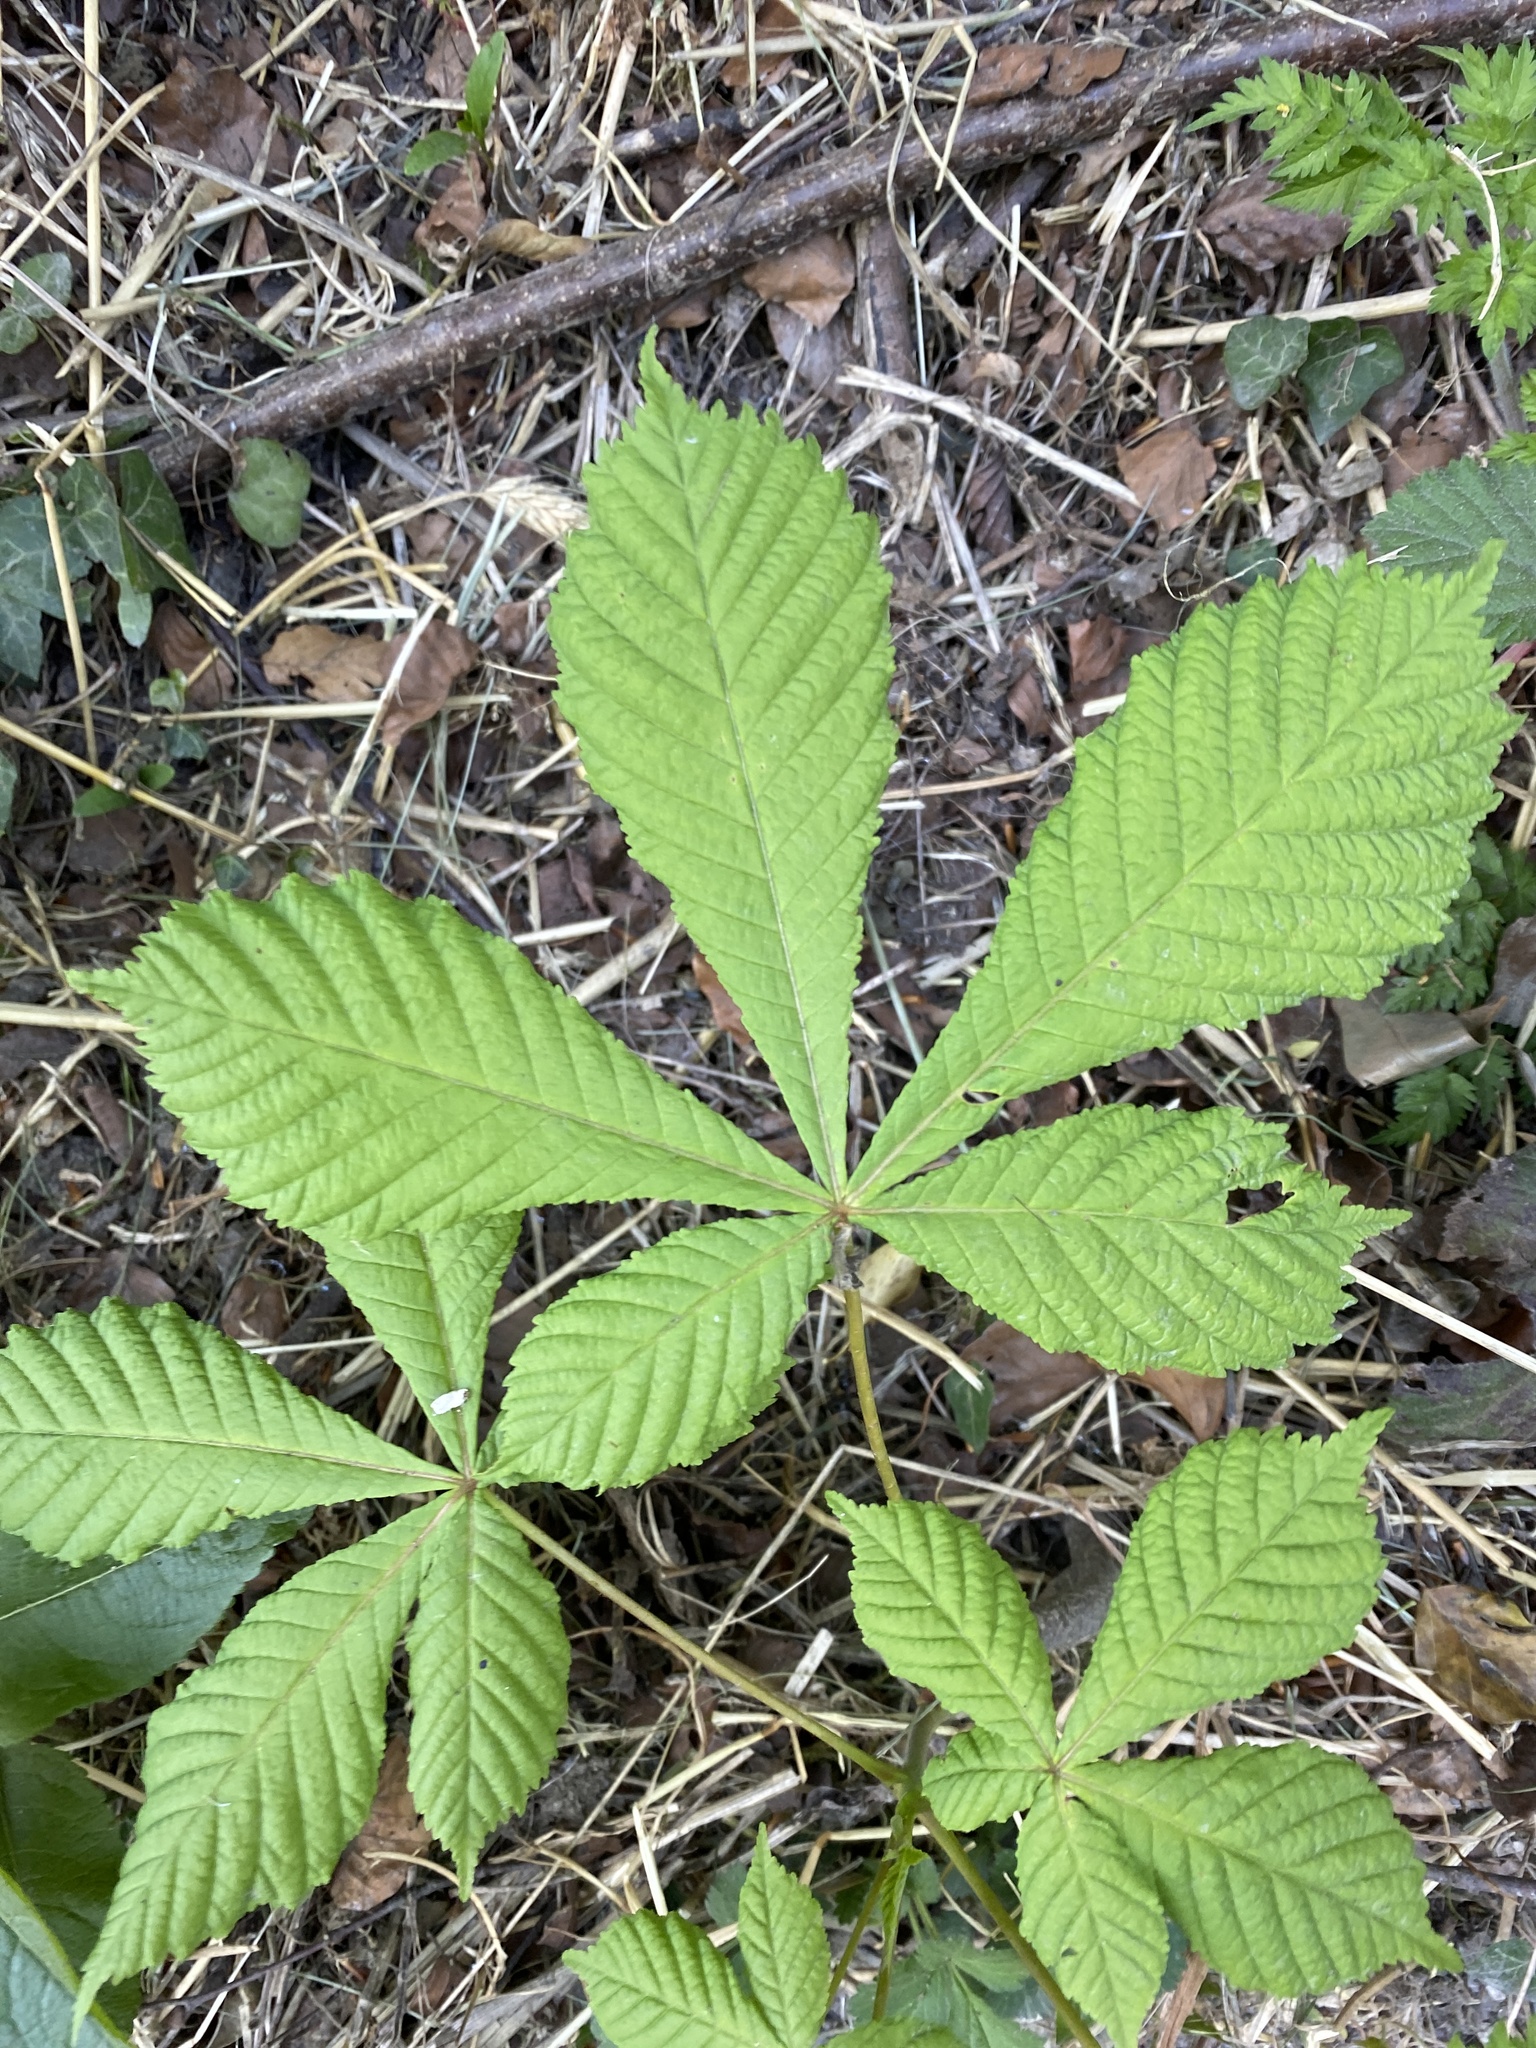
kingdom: Plantae
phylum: Tracheophyta
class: Magnoliopsida
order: Sapindales
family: Sapindaceae
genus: Aesculus
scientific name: Aesculus hippocastanum
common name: Horse-chestnut
